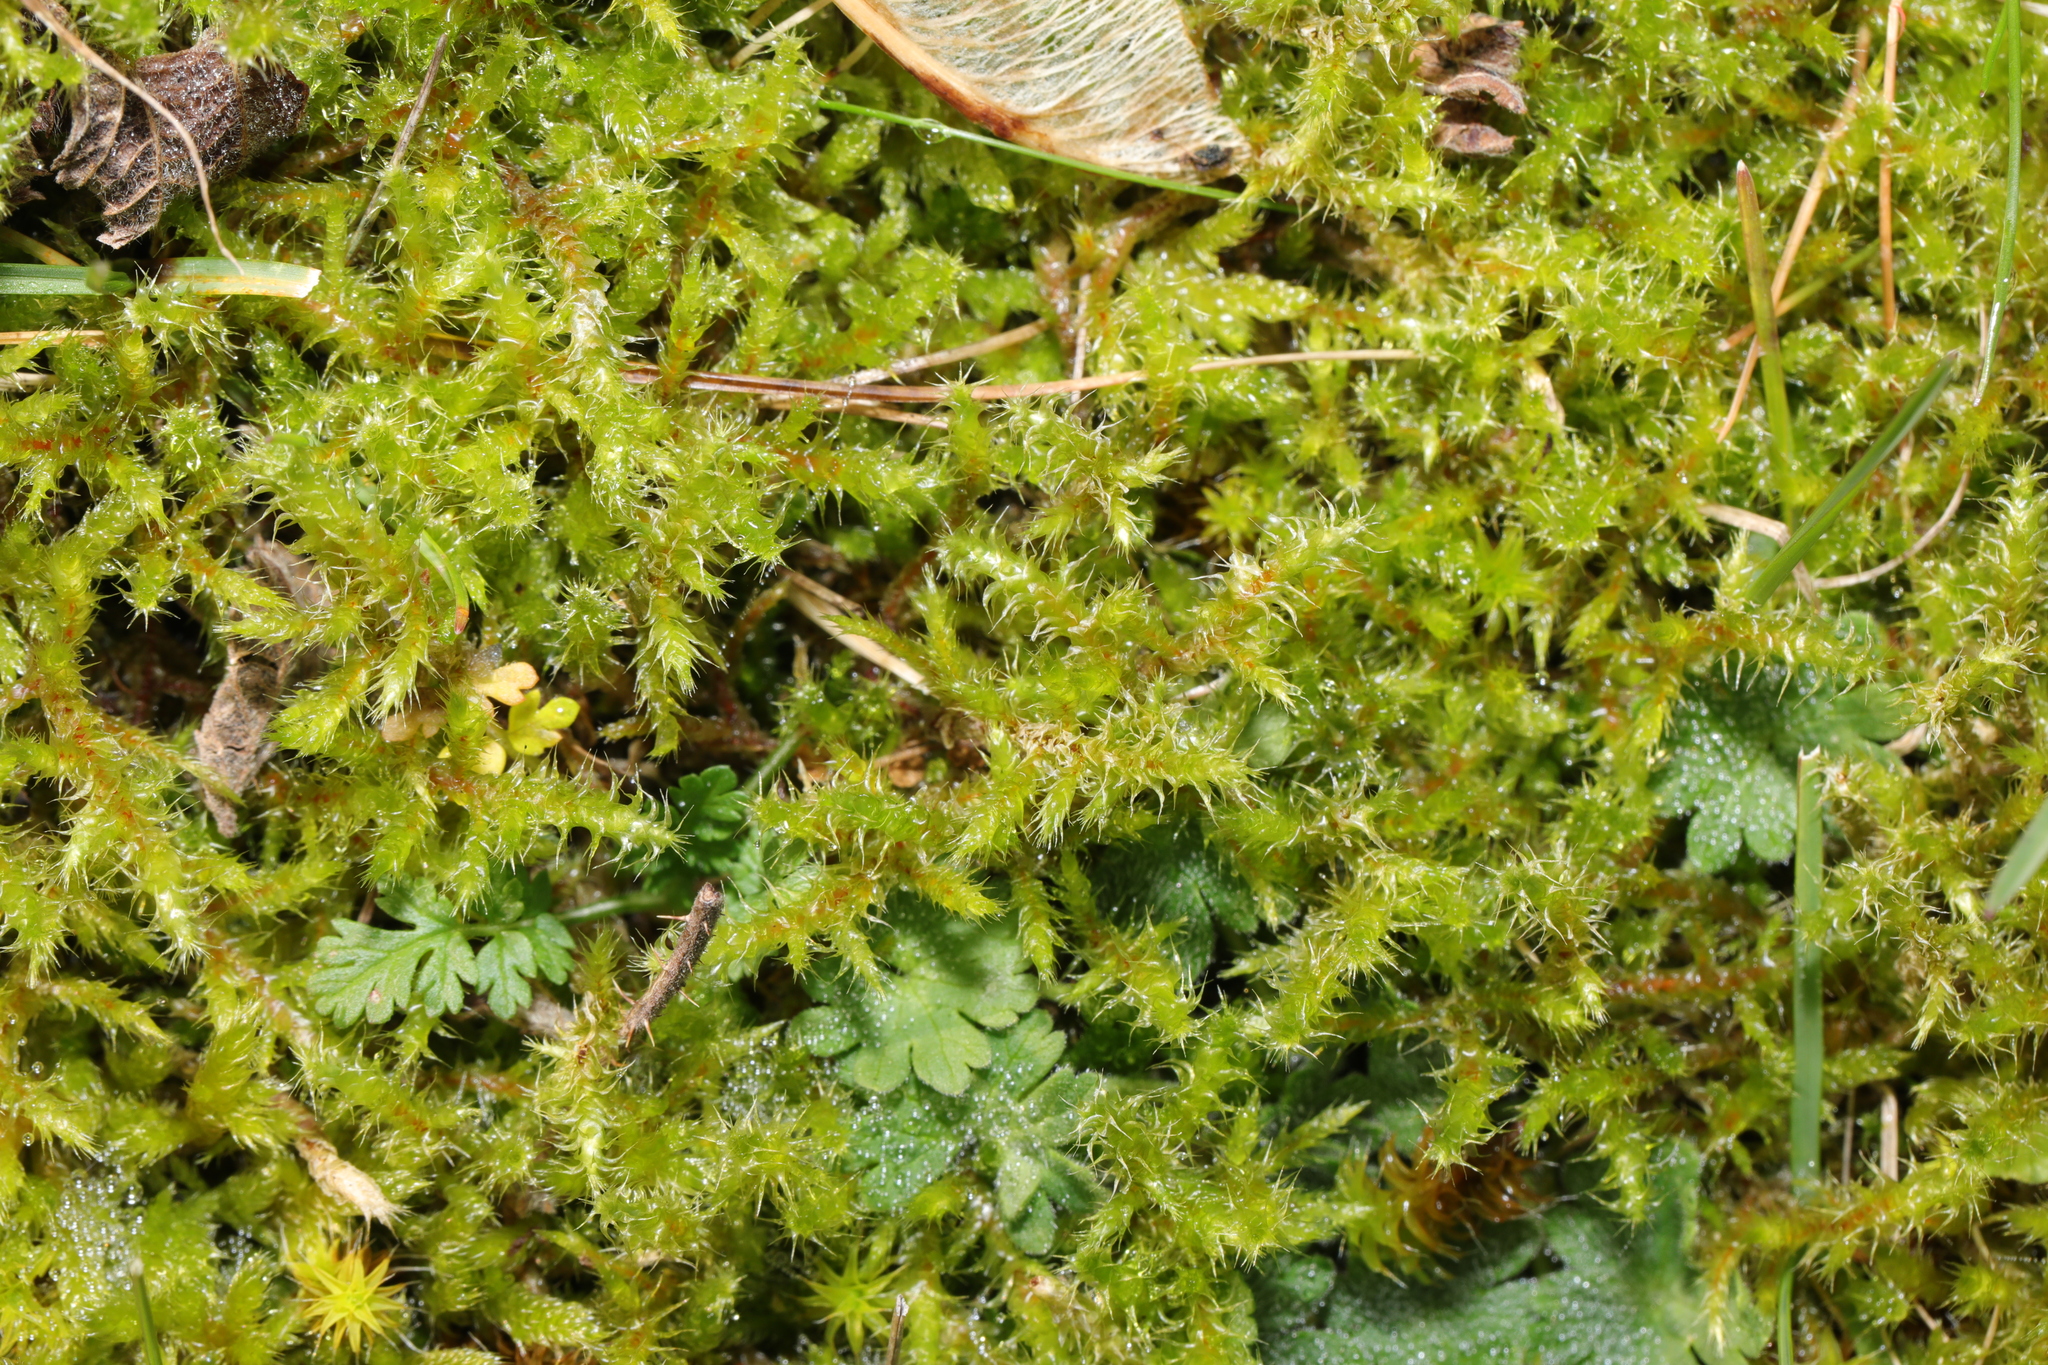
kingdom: Plantae
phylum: Bryophyta
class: Bryopsida
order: Hypnales
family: Hylocomiaceae
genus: Rhytidiadelphus
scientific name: Rhytidiadelphus squarrosus
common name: Springy turf-moss
